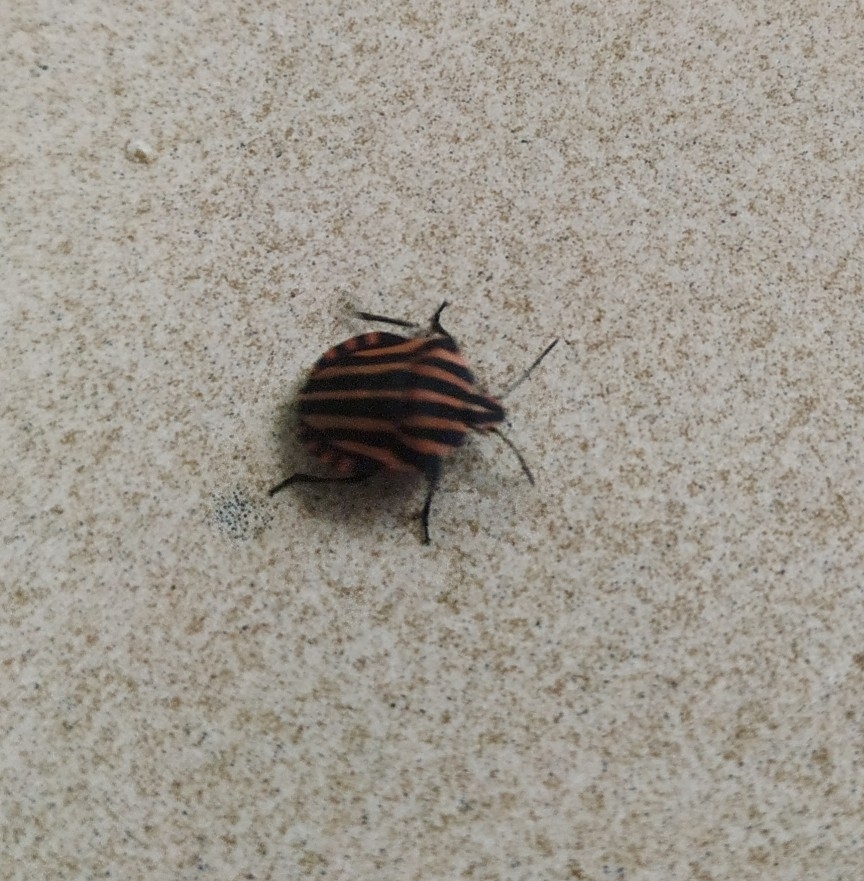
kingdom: Animalia
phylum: Arthropoda
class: Insecta
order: Hemiptera
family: Pentatomidae
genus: Graphosoma
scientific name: Graphosoma italicum
